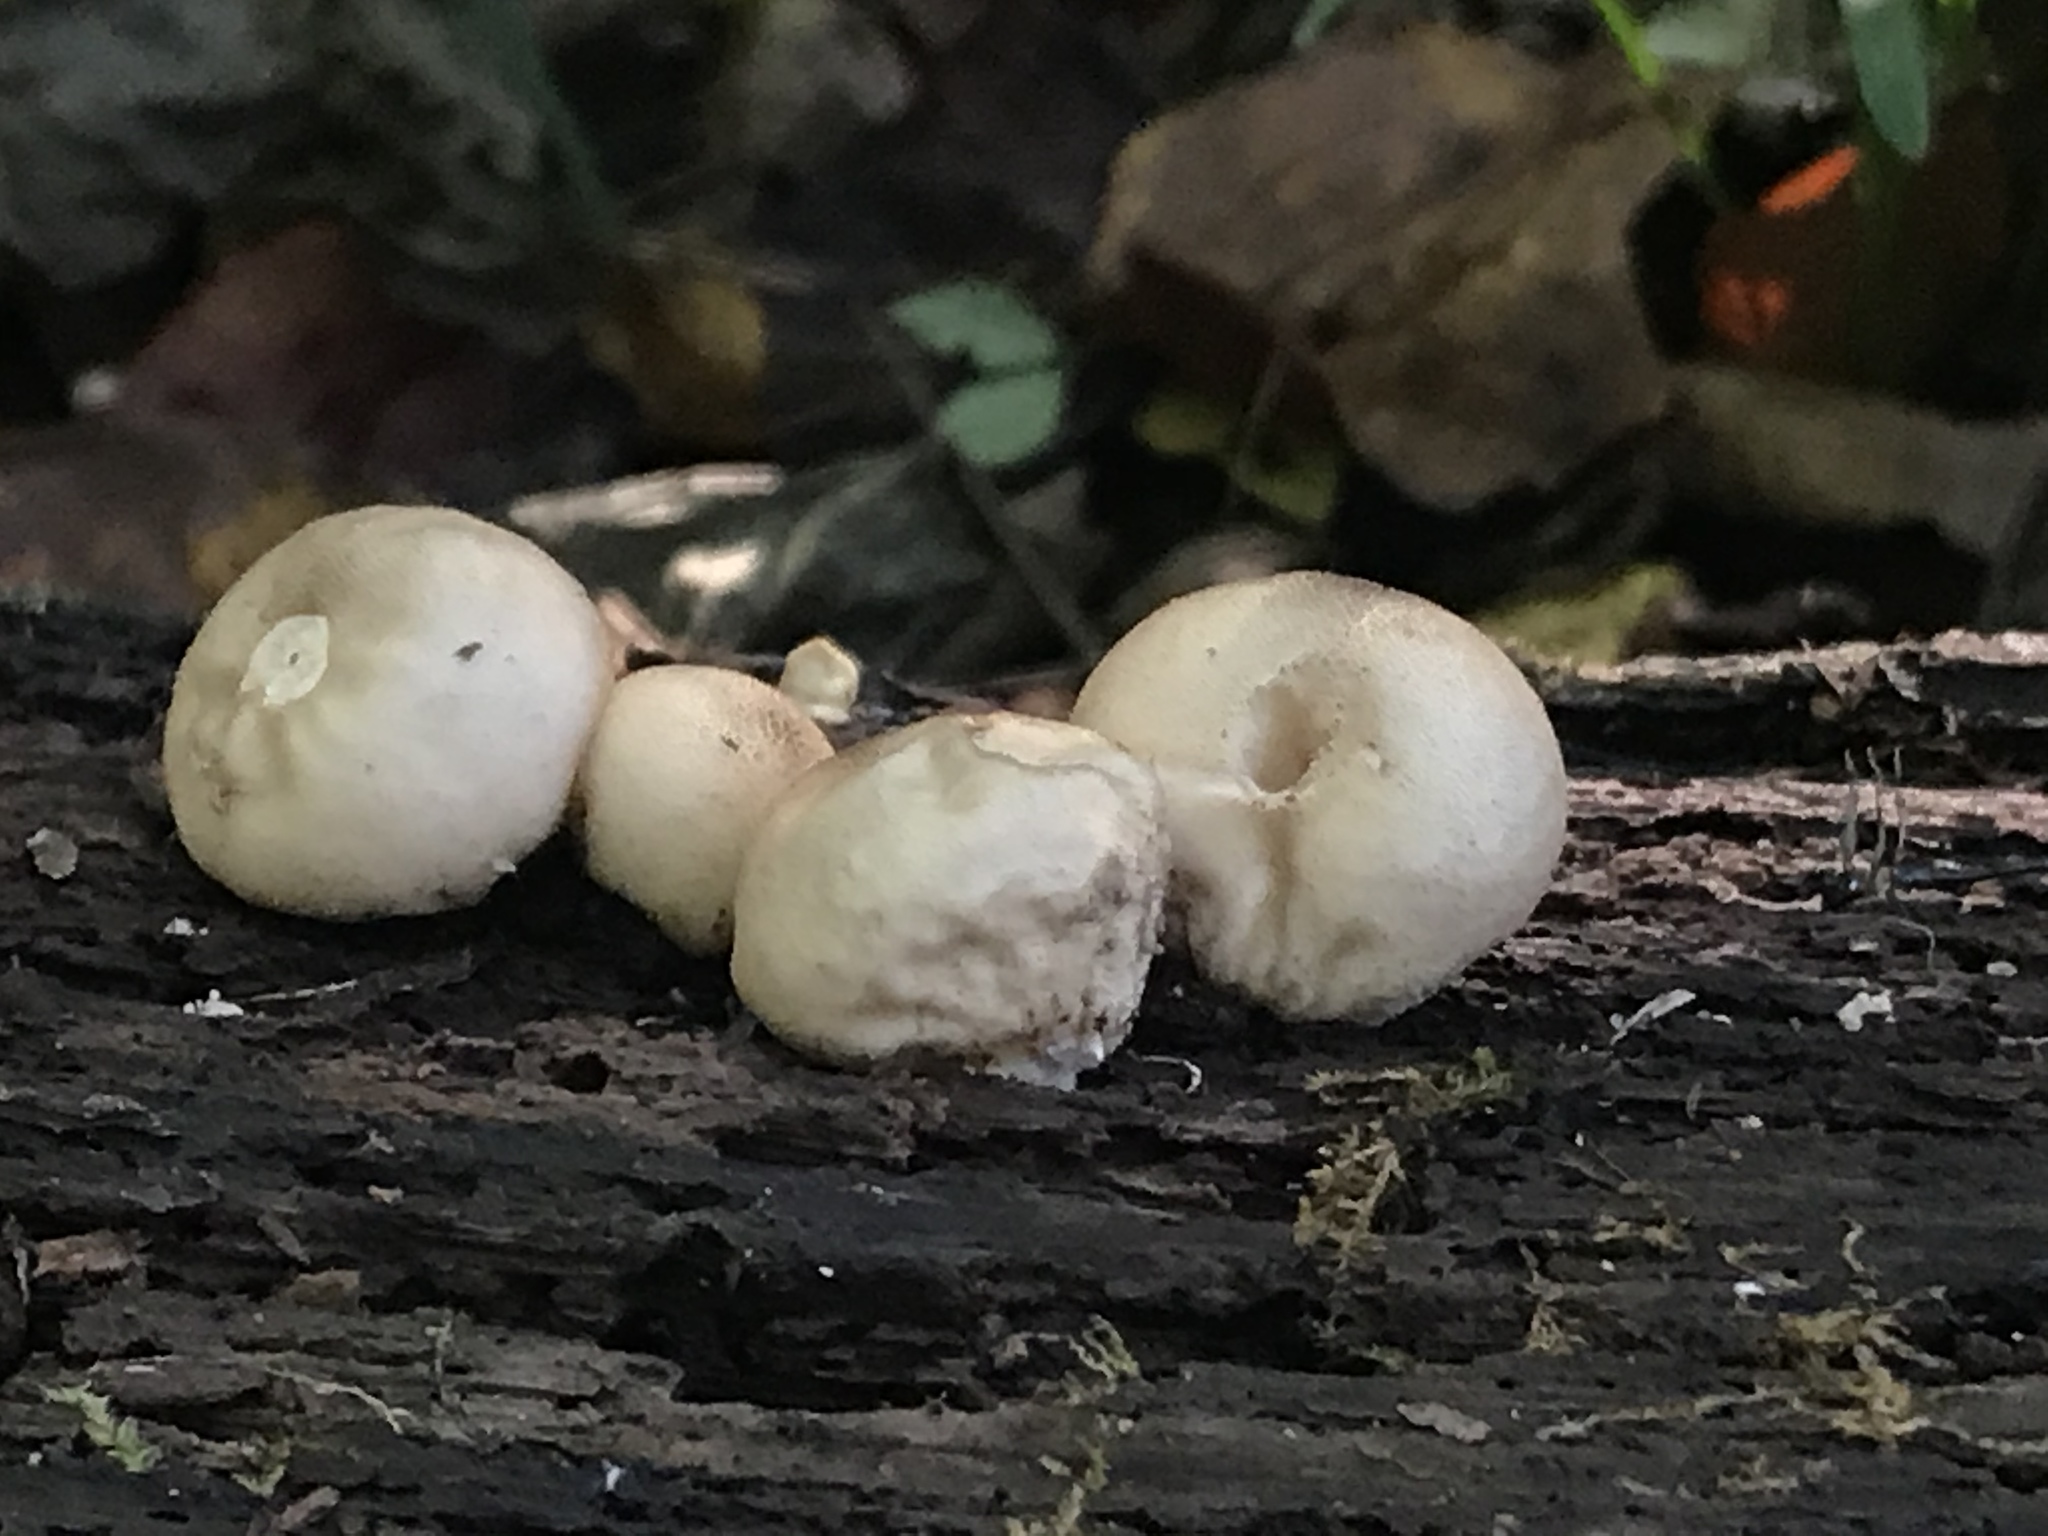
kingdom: Fungi
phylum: Basidiomycota
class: Agaricomycetes
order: Agaricales
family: Lycoperdaceae
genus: Apioperdon
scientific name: Apioperdon pyriforme
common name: Pear-shaped puffball
